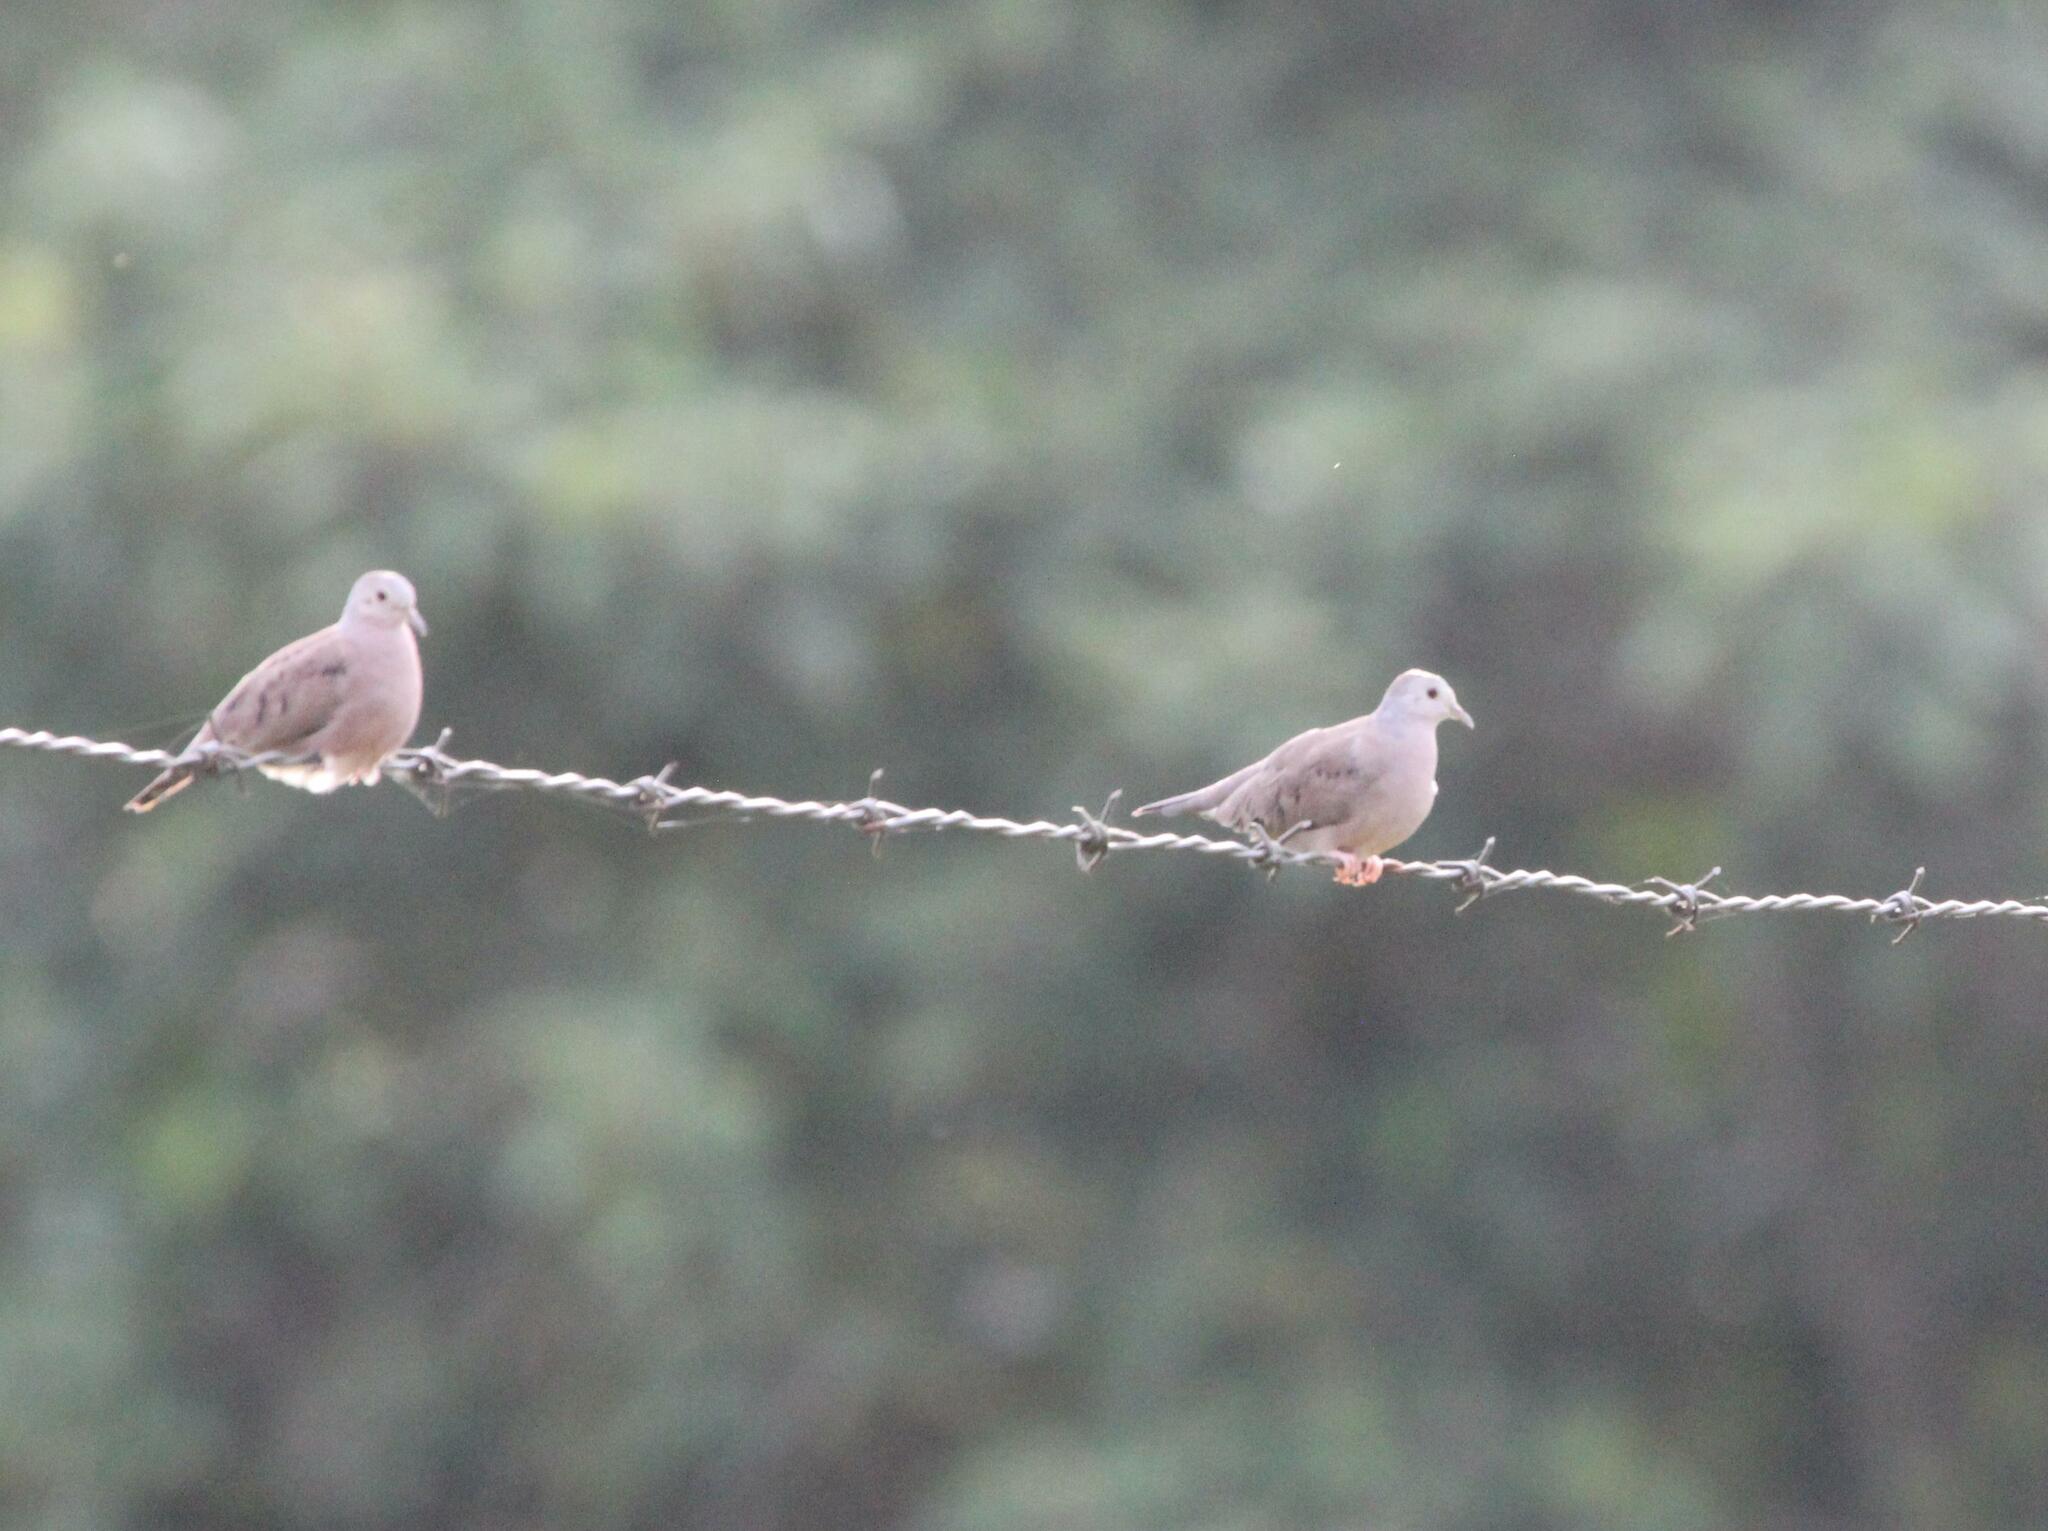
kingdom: Animalia
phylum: Chordata
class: Aves
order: Columbiformes
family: Columbidae
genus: Columbina
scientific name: Columbina minuta
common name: Plain-breasted ground dove
